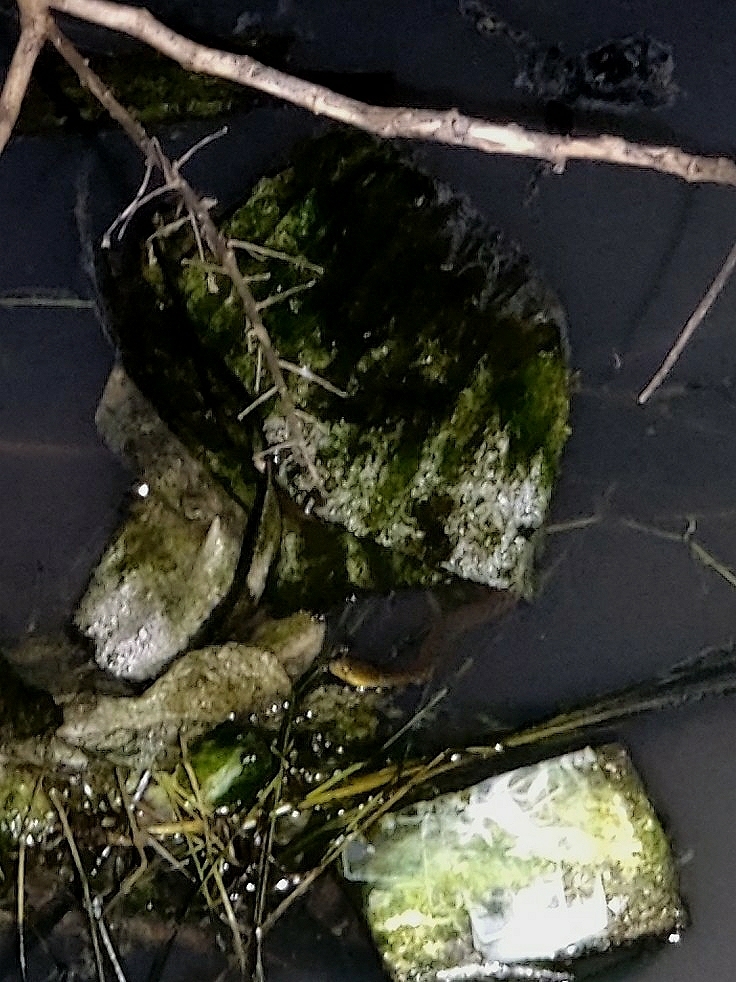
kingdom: Animalia
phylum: Chordata
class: Squamata
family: Colubridae
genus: Fowlea
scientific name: Fowlea piscator
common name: Asiatic water snake
